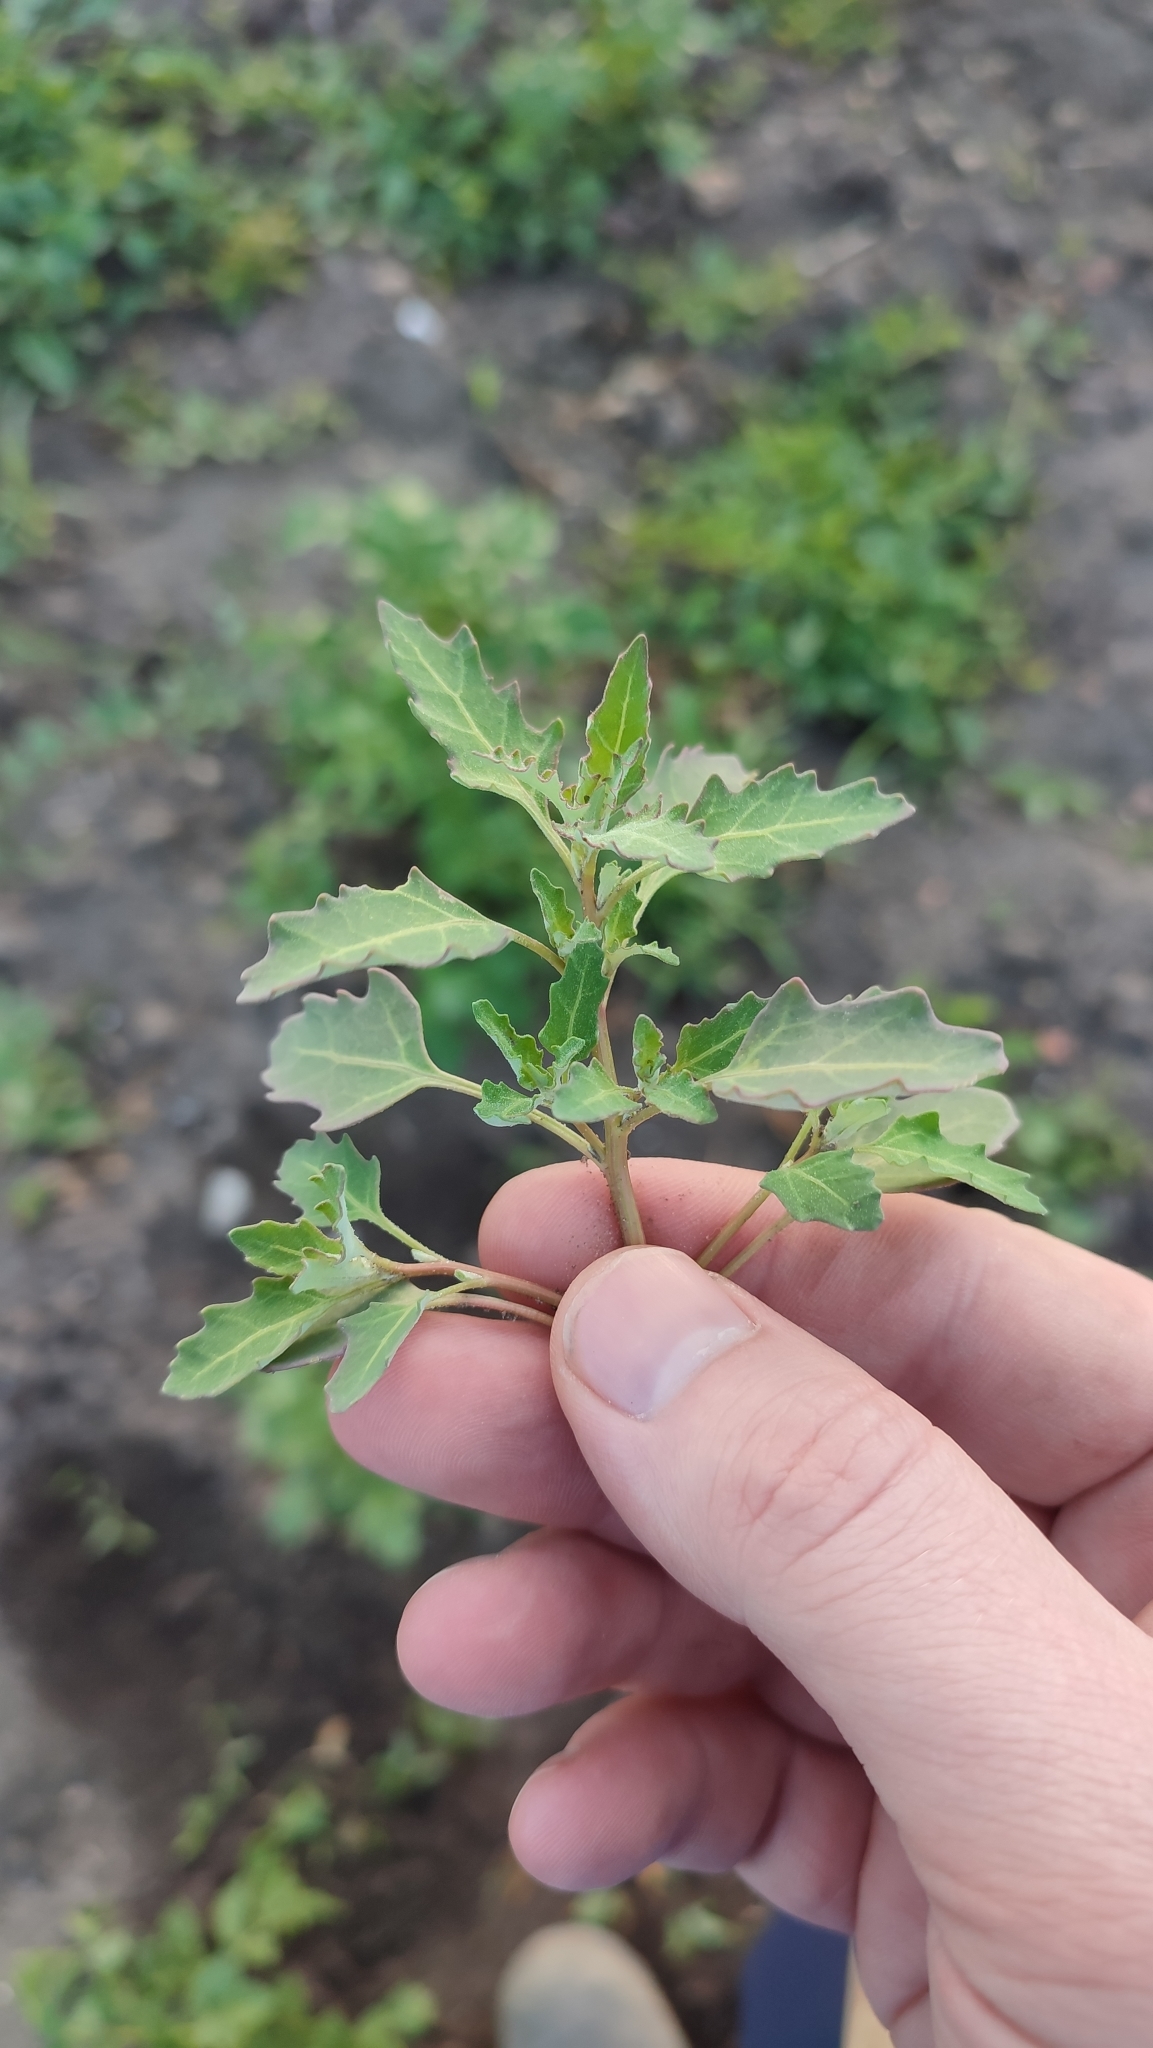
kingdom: Plantae
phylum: Tracheophyta
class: Magnoliopsida
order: Caryophyllales
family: Amaranthaceae
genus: Oxybasis
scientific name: Oxybasis glauca
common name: Glaucous goosefoot
